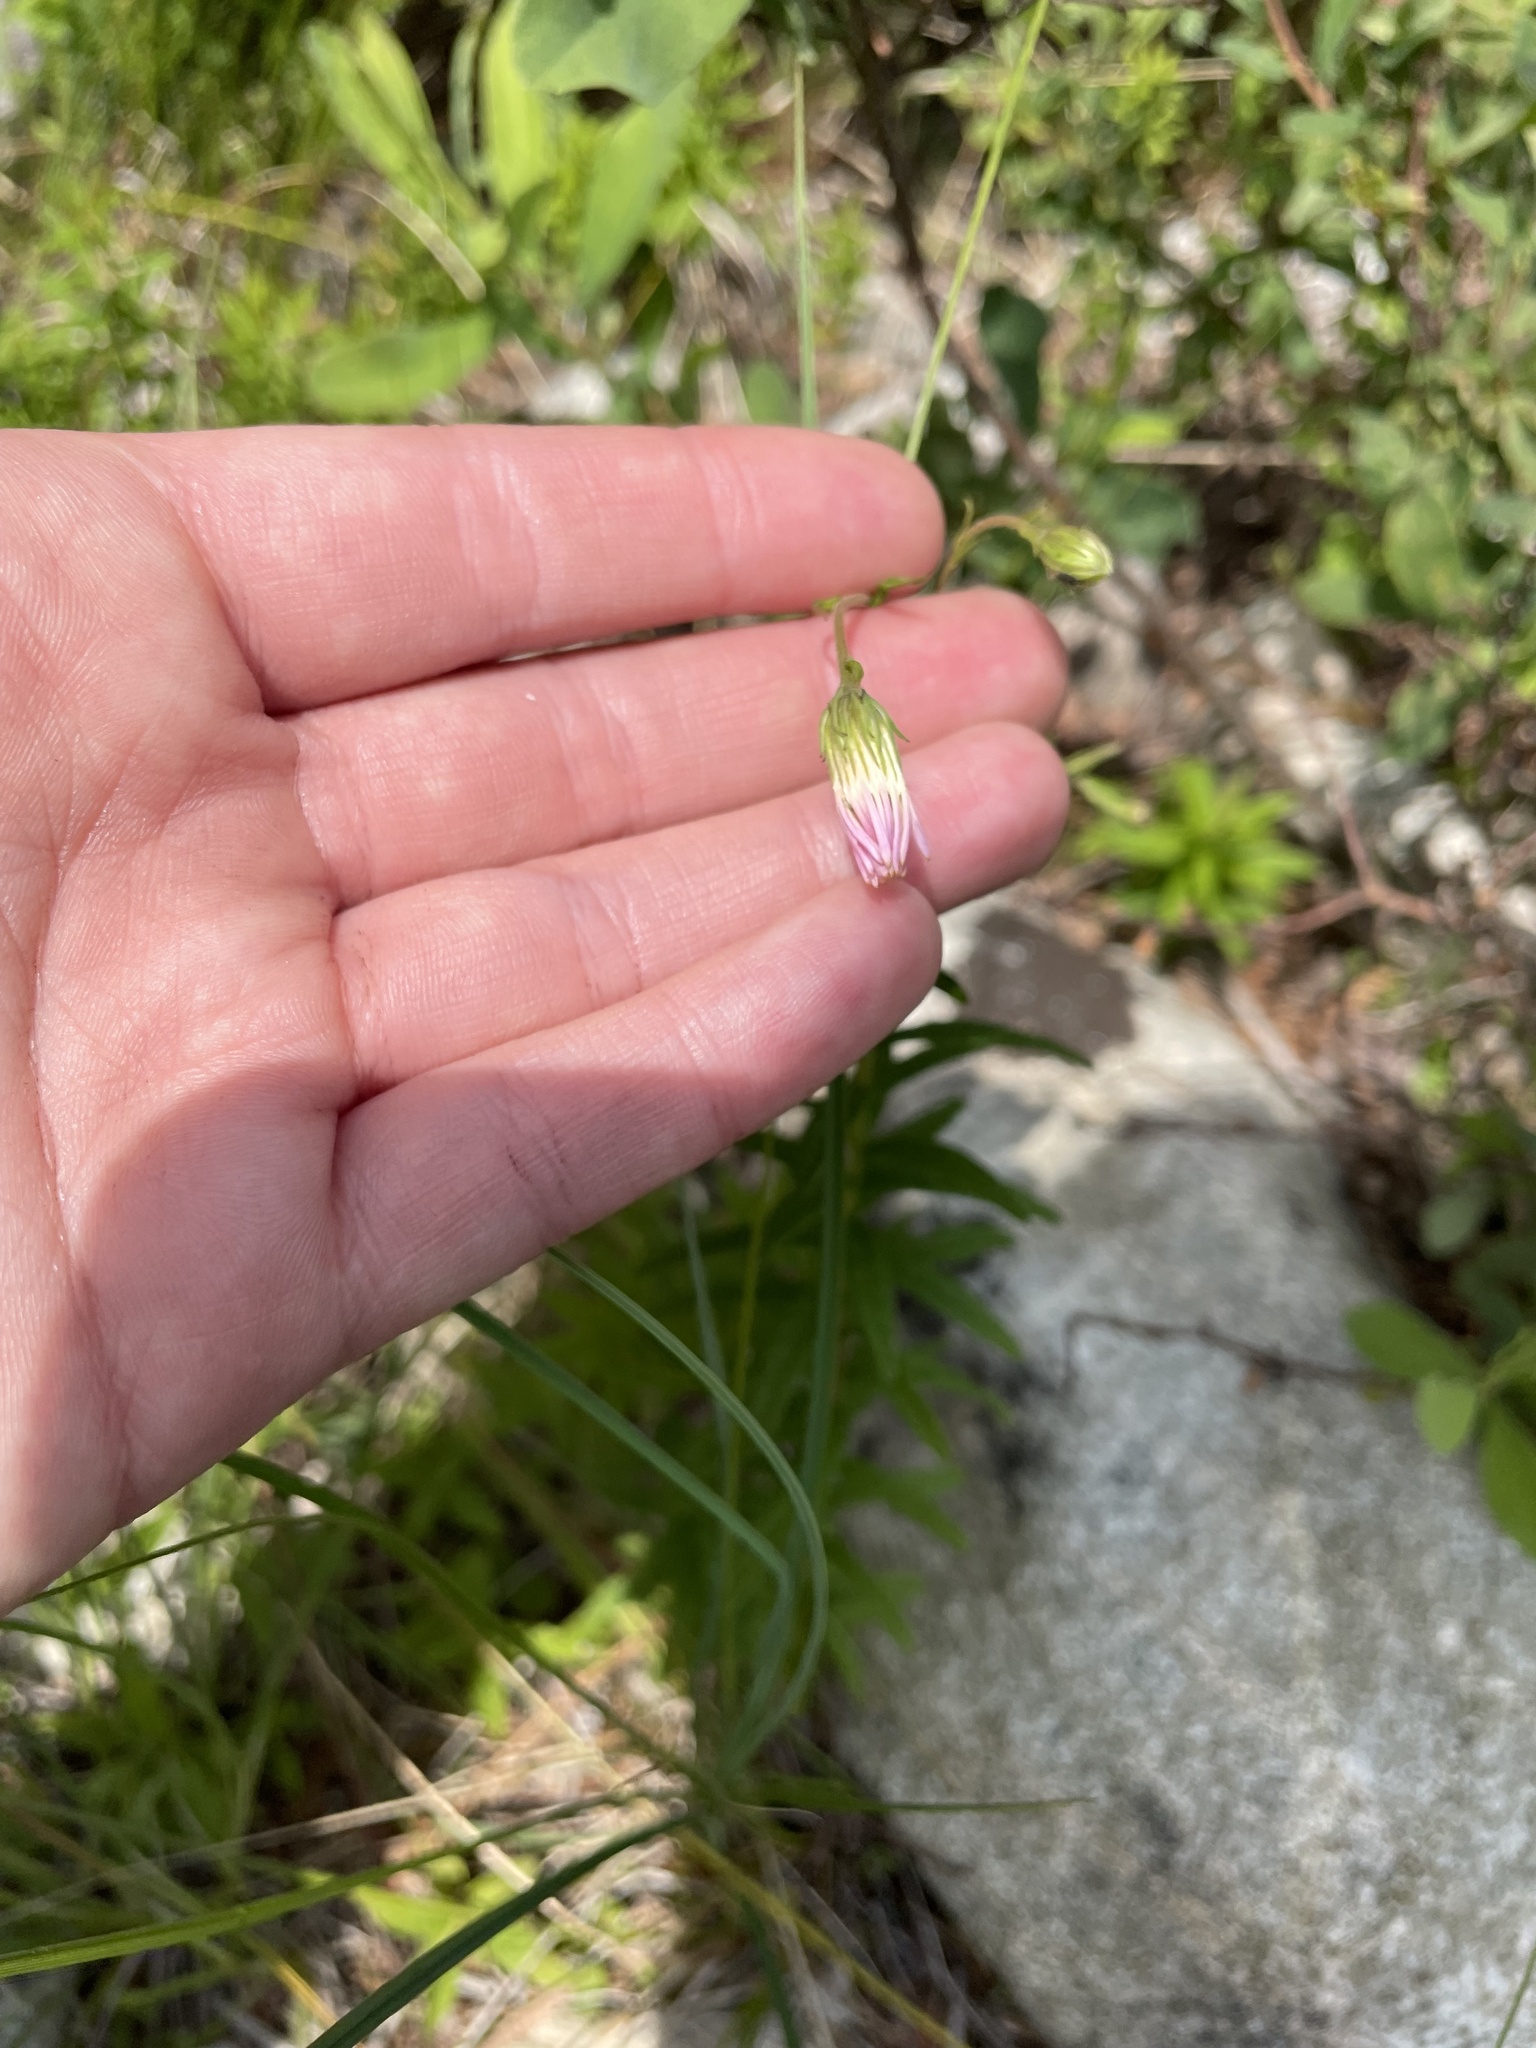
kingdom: Plantae
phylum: Tracheophyta
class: Magnoliopsida
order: Asterales
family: Asteraceae
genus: Oclemena
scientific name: Oclemena nemoralis
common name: Bog aster
